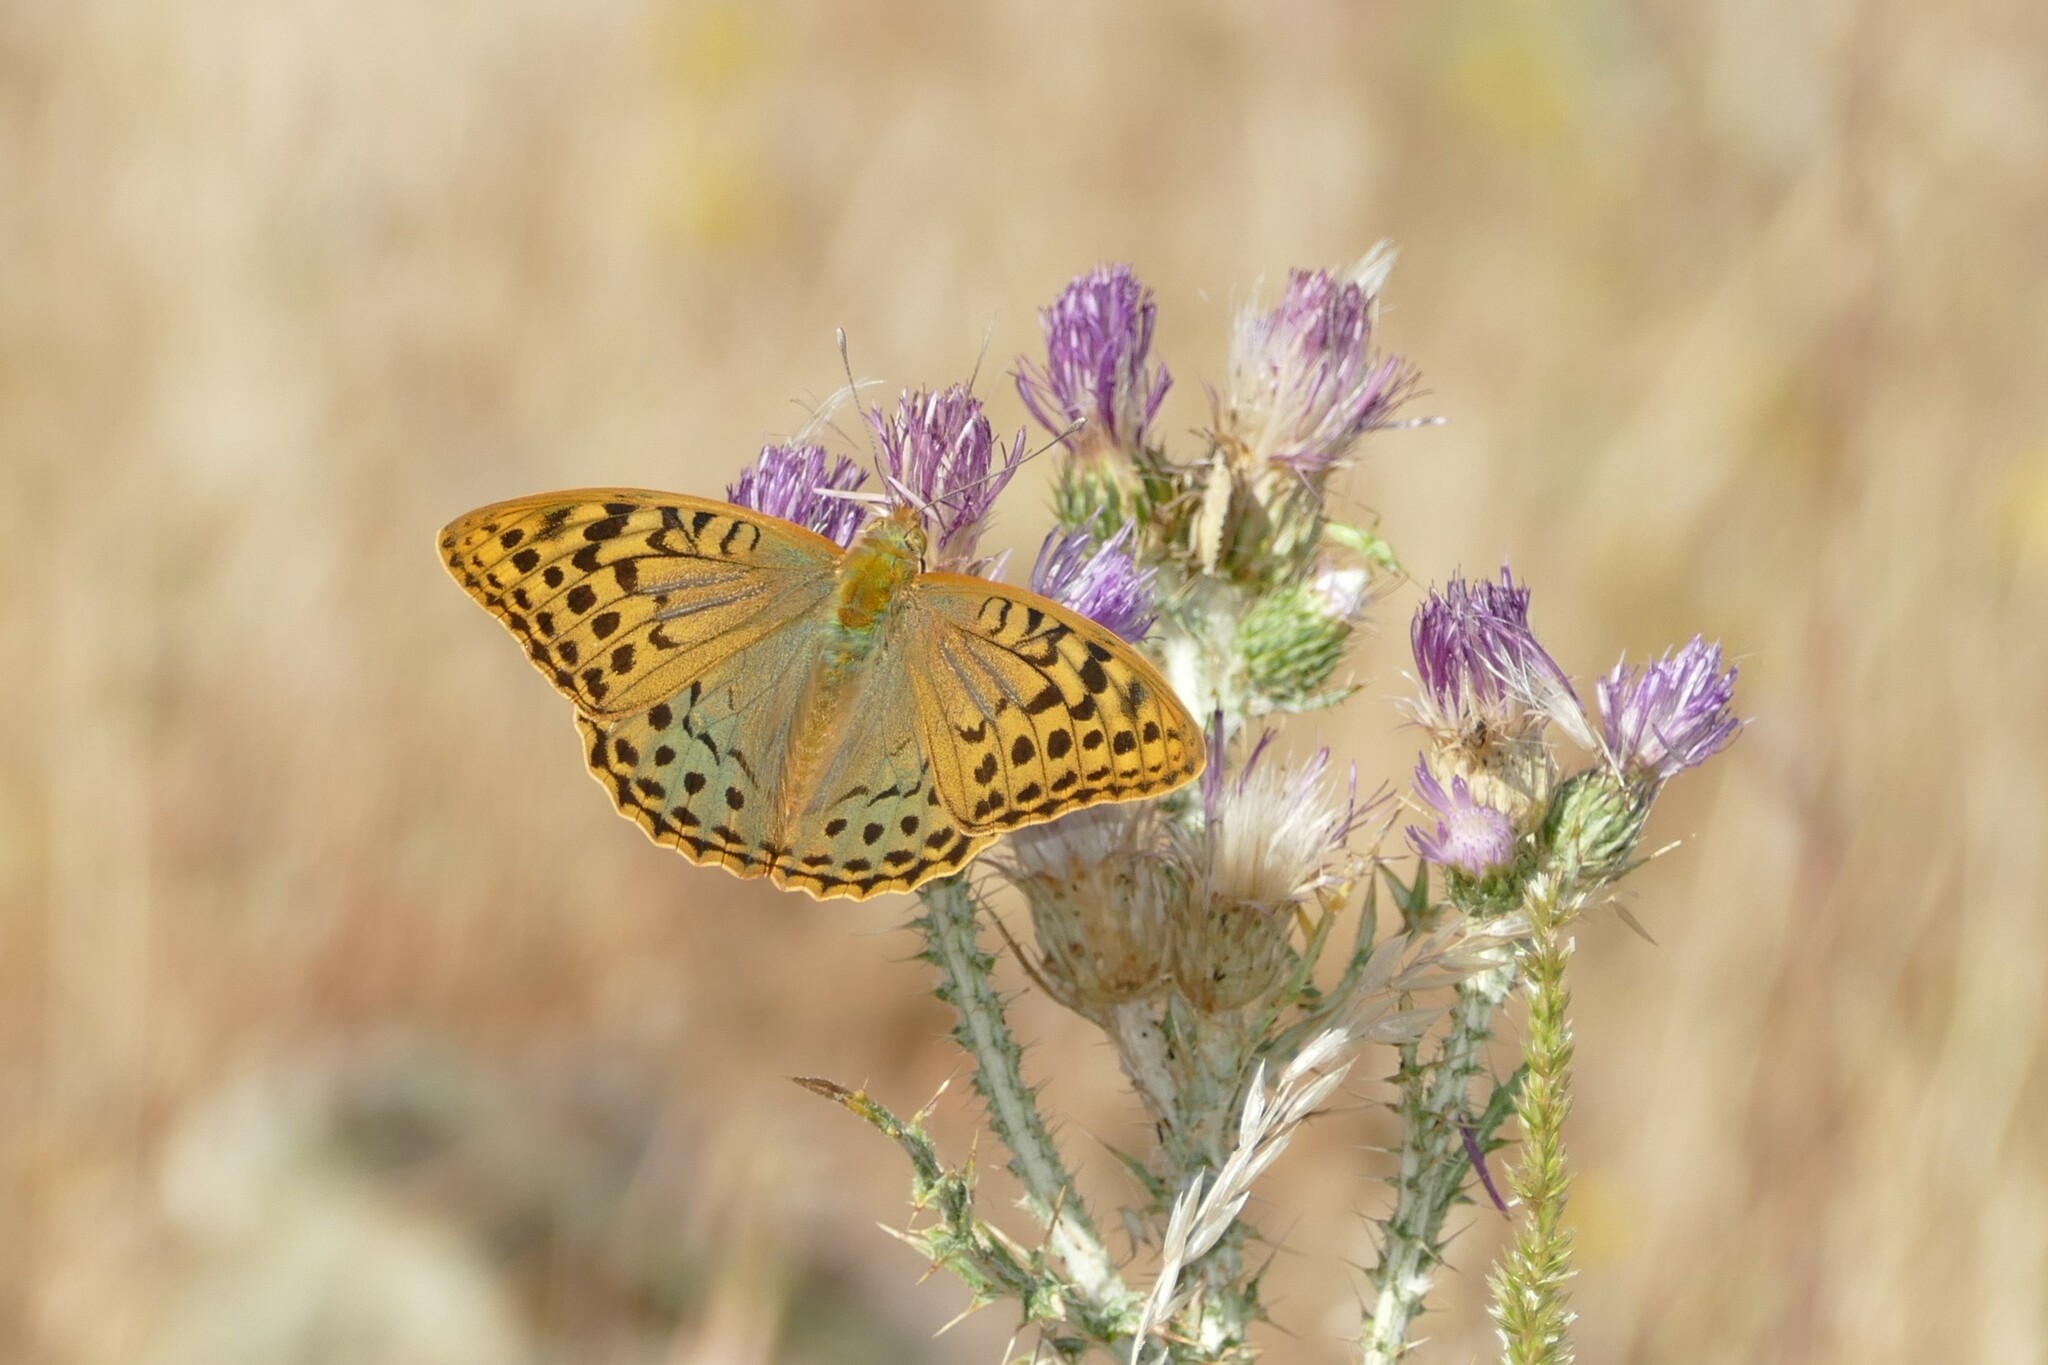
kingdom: Animalia
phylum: Arthropoda
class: Insecta
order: Lepidoptera
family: Nymphalidae
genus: Damora
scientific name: Damora pandora
